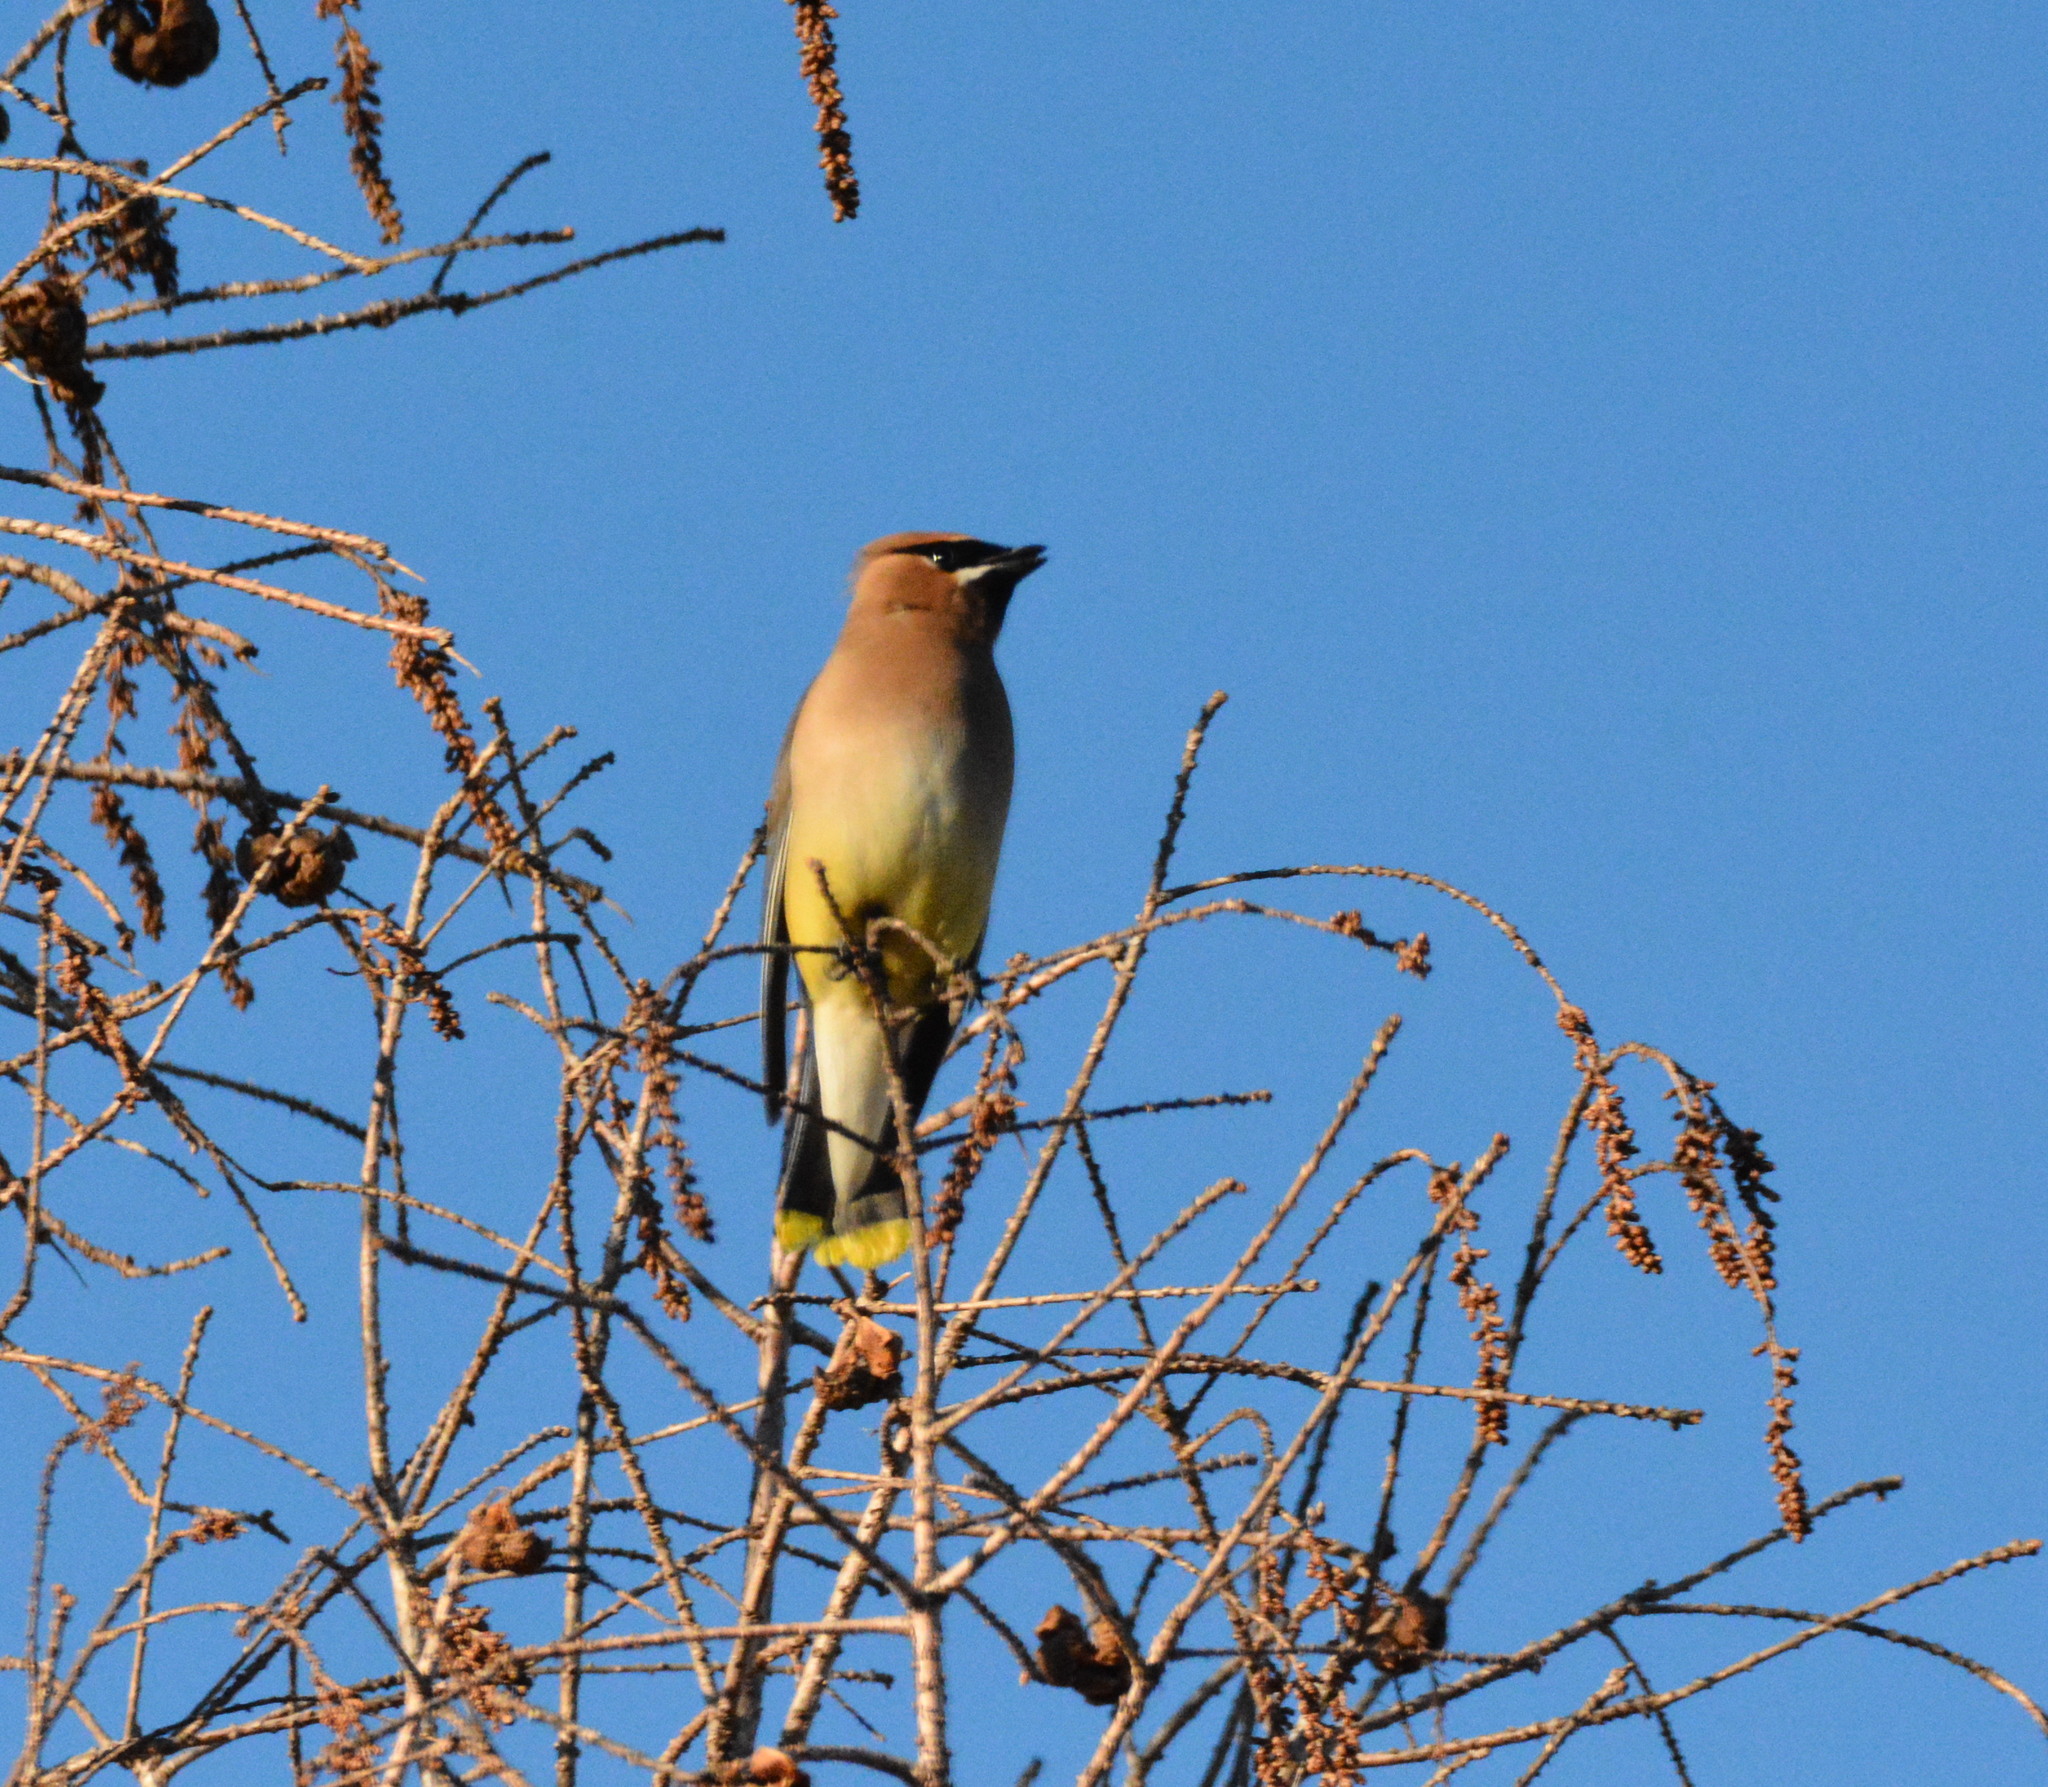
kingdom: Animalia
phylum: Chordata
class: Aves
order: Passeriformes
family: Bombycillidae
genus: Bombycilla
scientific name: Bombycilla cedrorum
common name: Cedar waxwing
